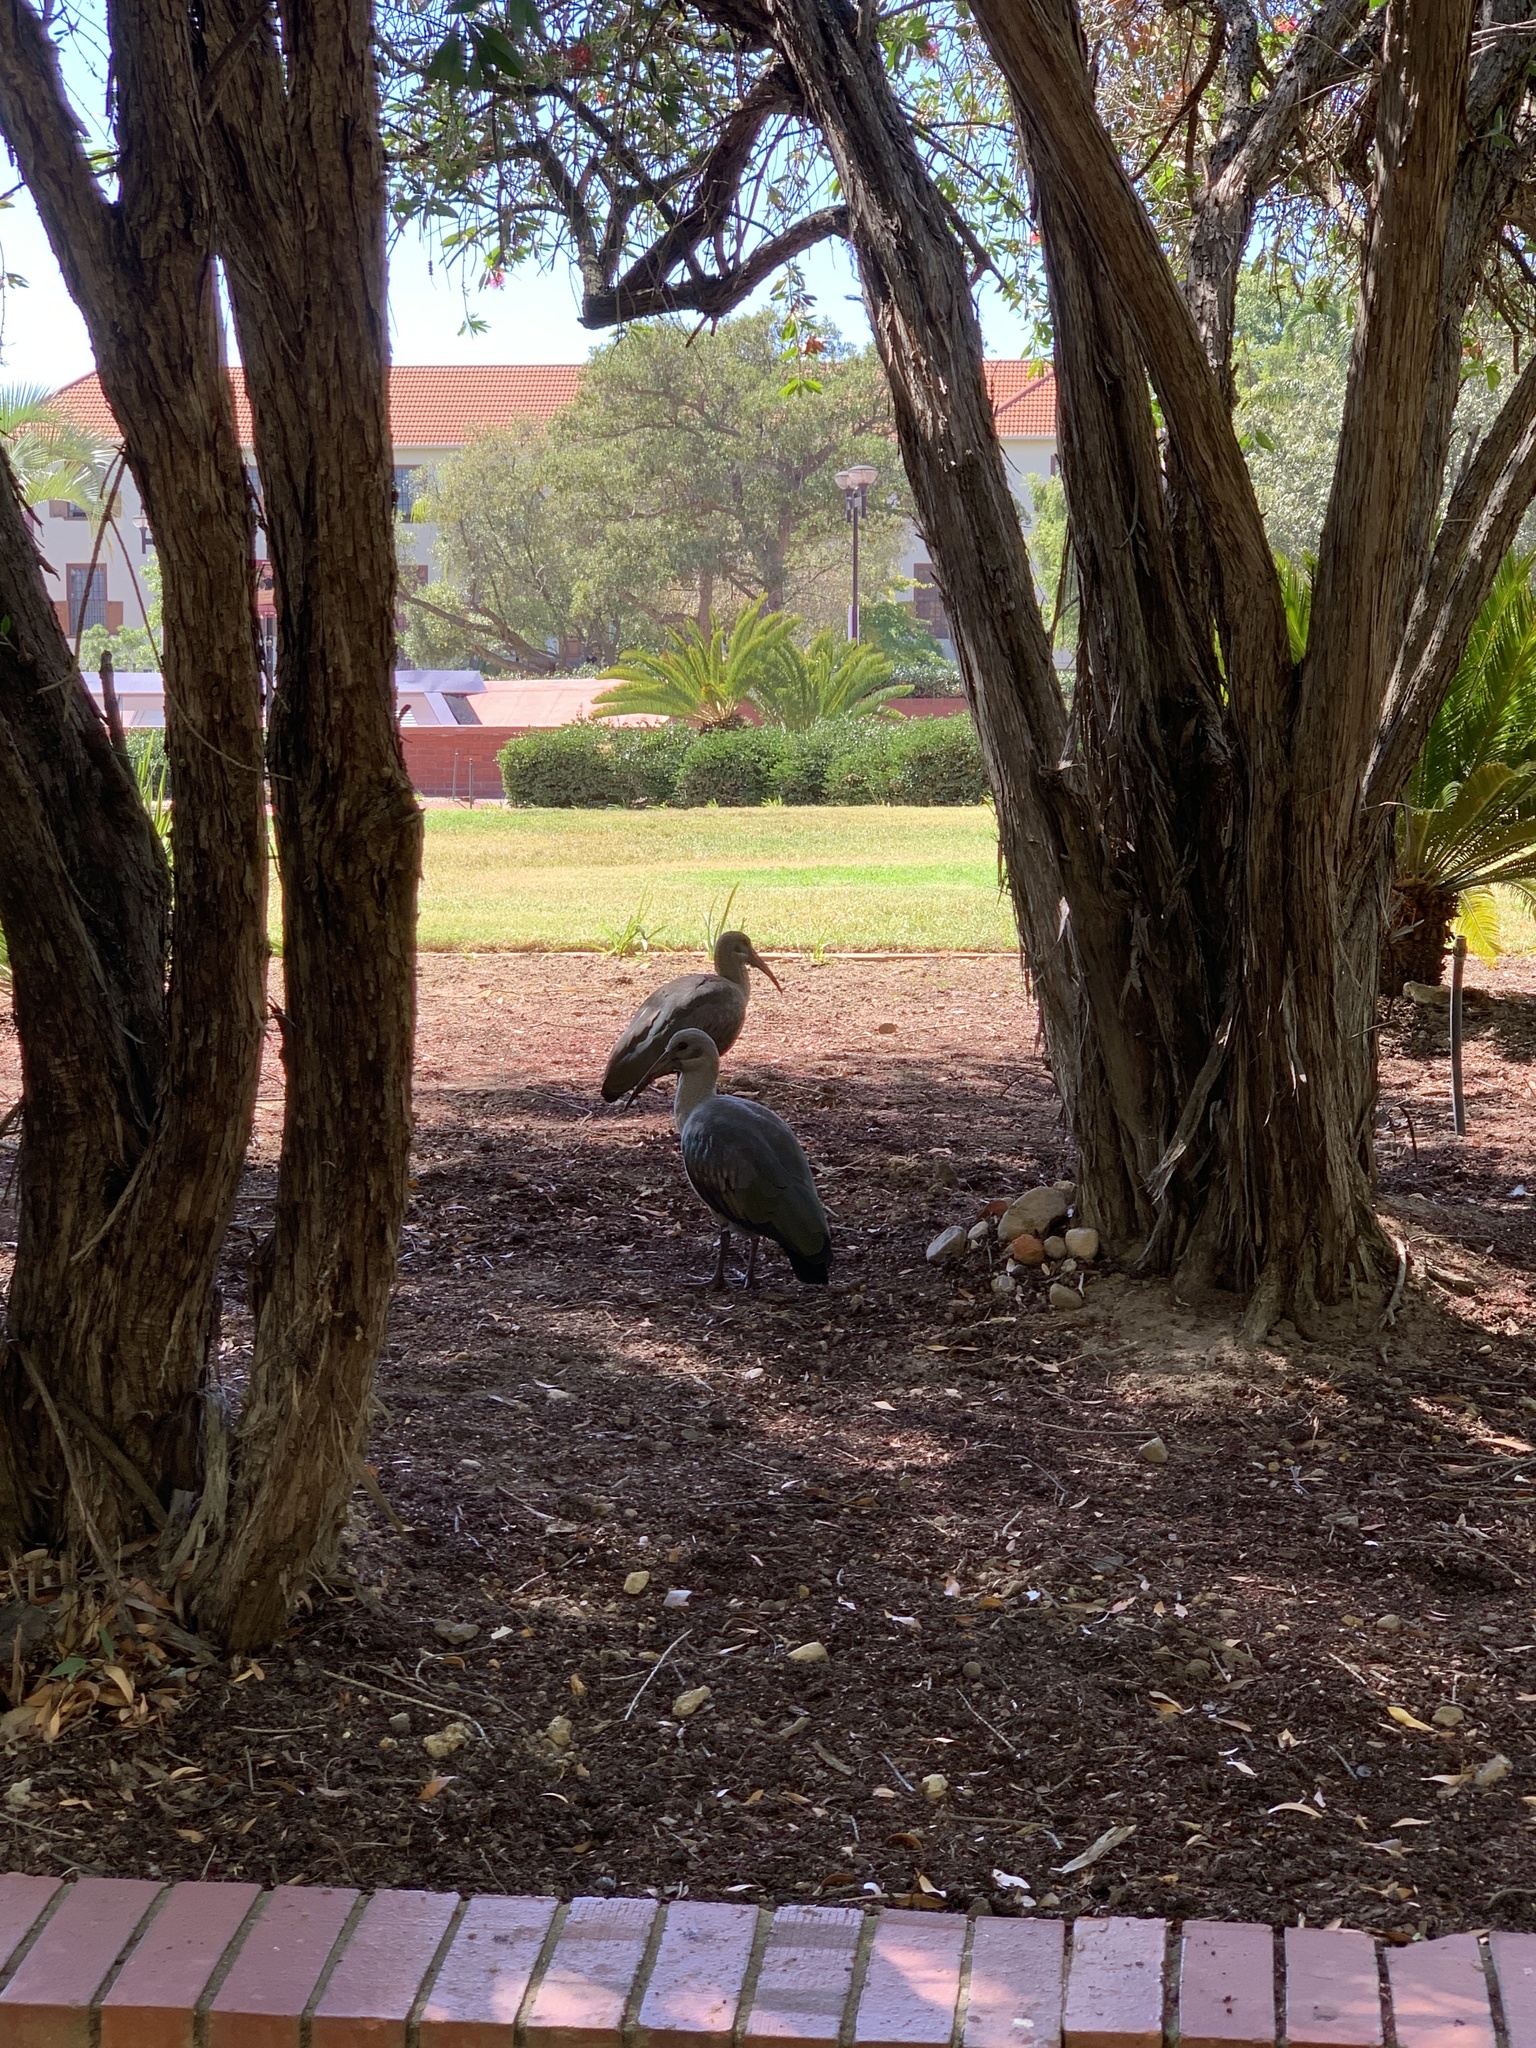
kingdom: Animalia
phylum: Chordata
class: Aves
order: Pelecaniformes
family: Threskiornithidae
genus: Bostrychia
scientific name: Bostrychia hagedash
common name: Hadada ibis
